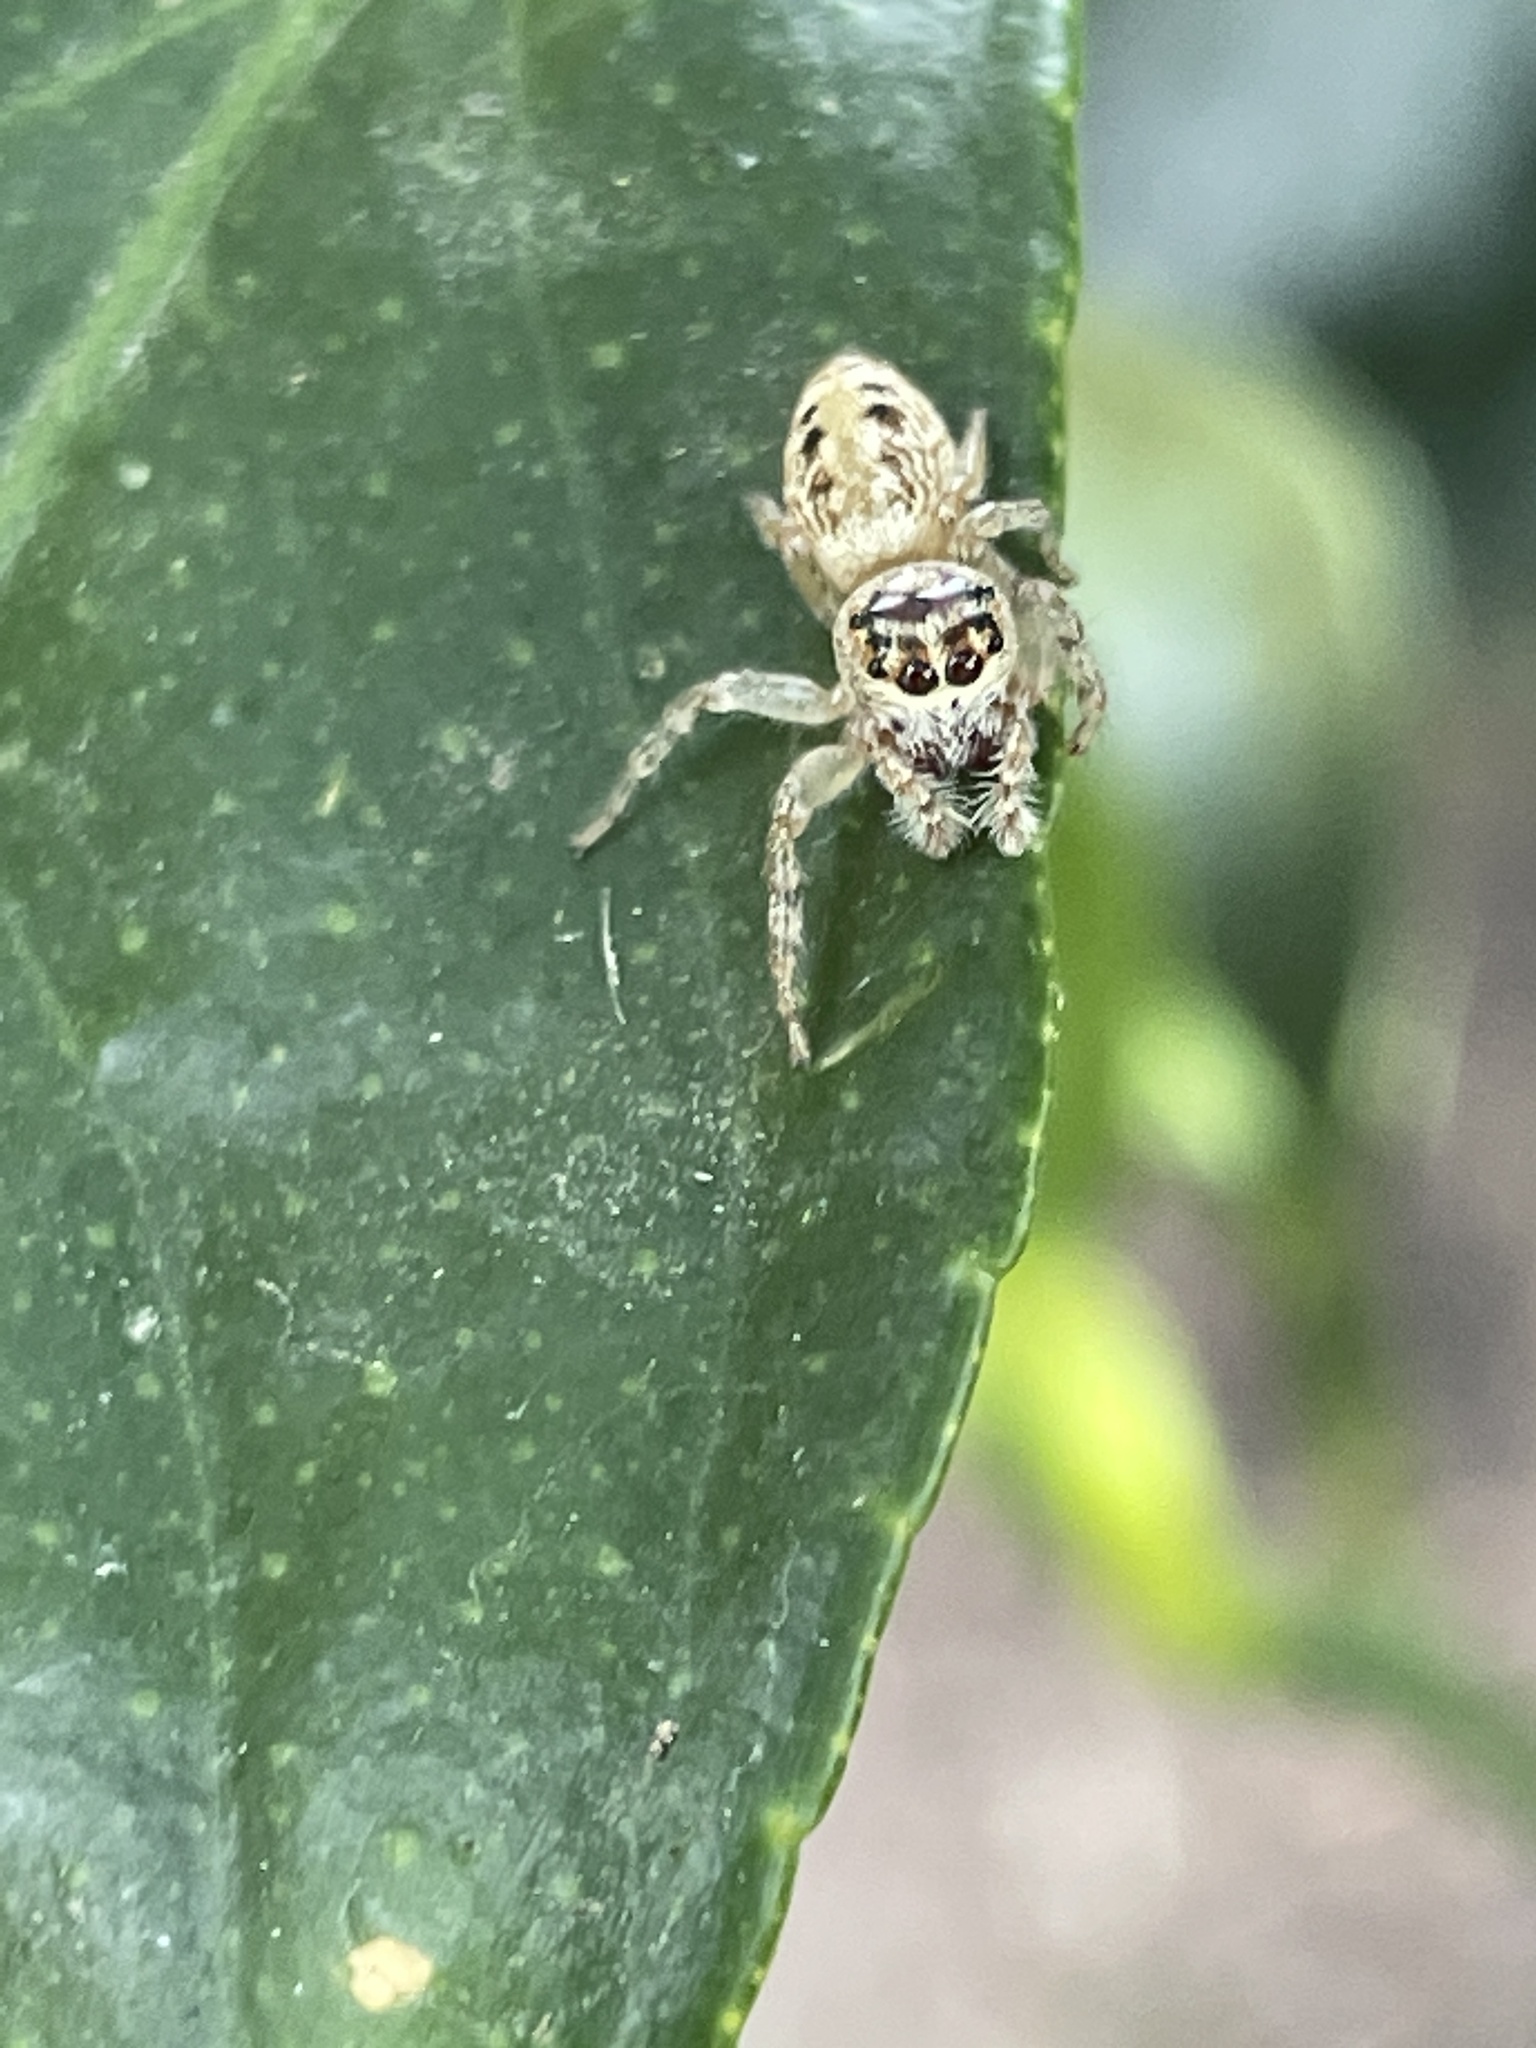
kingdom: Animalia
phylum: Arthropoda
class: Arachnida
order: Araneae
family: Salticidae
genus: Opisthoncus
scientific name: Opisthoncus nigrofemoratus
